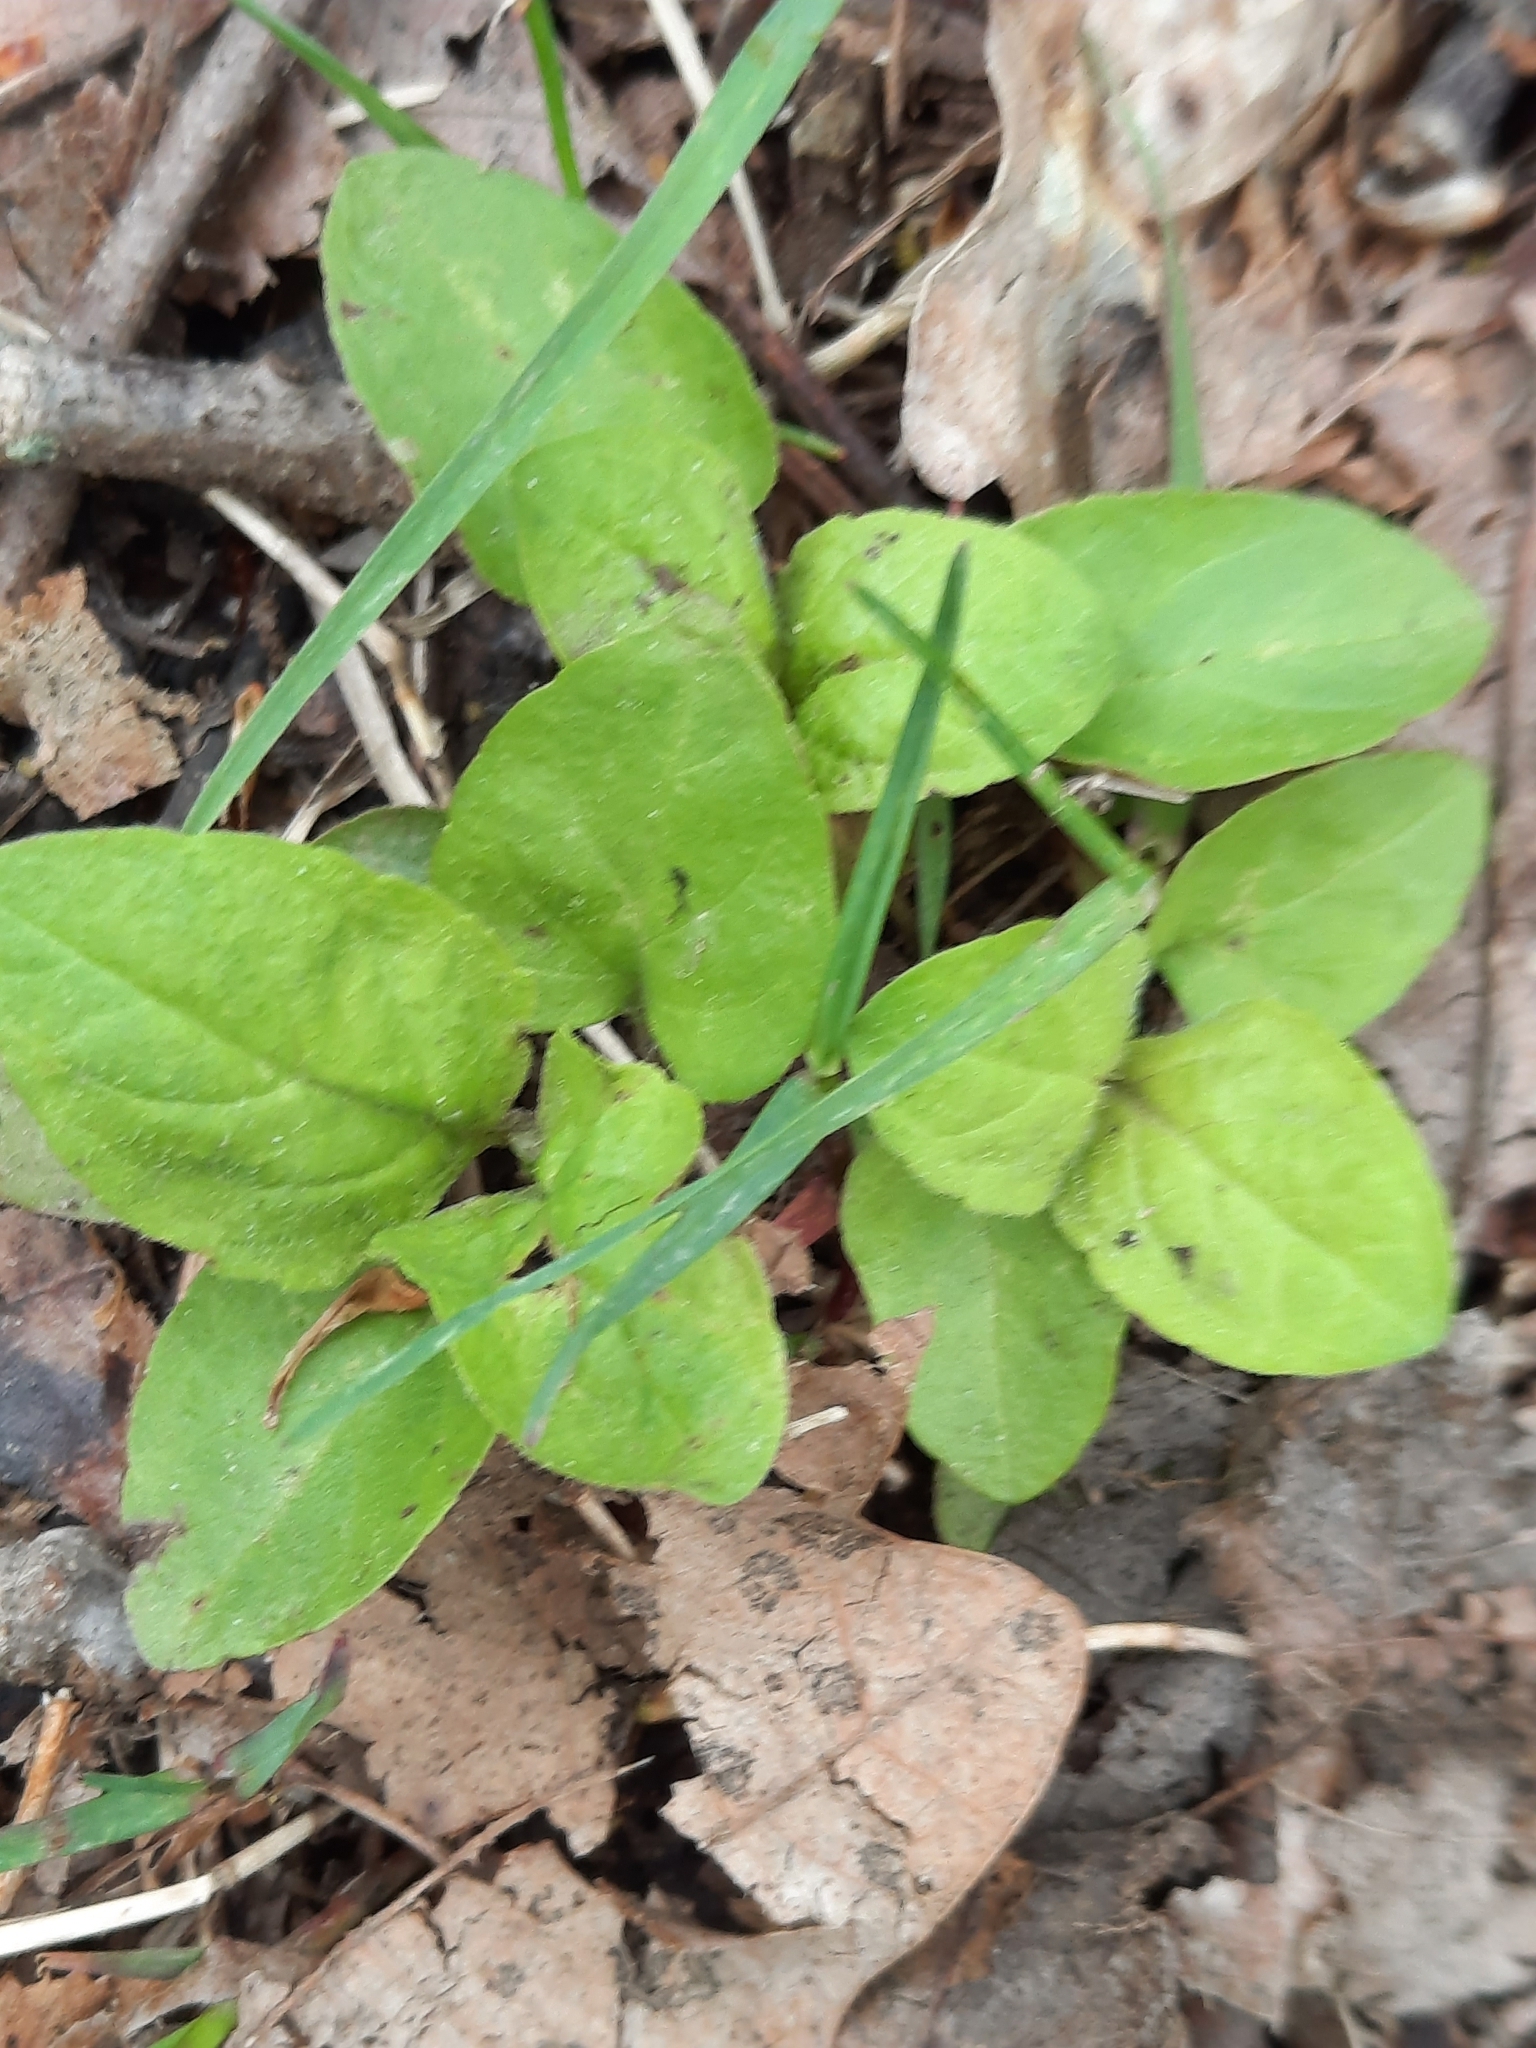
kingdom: Plantae
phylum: Tracheophyta
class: Magnoliopsida
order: Lamiales
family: Lamiaceae
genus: Prunella
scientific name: Prunella vulgaris
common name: Heal-all
